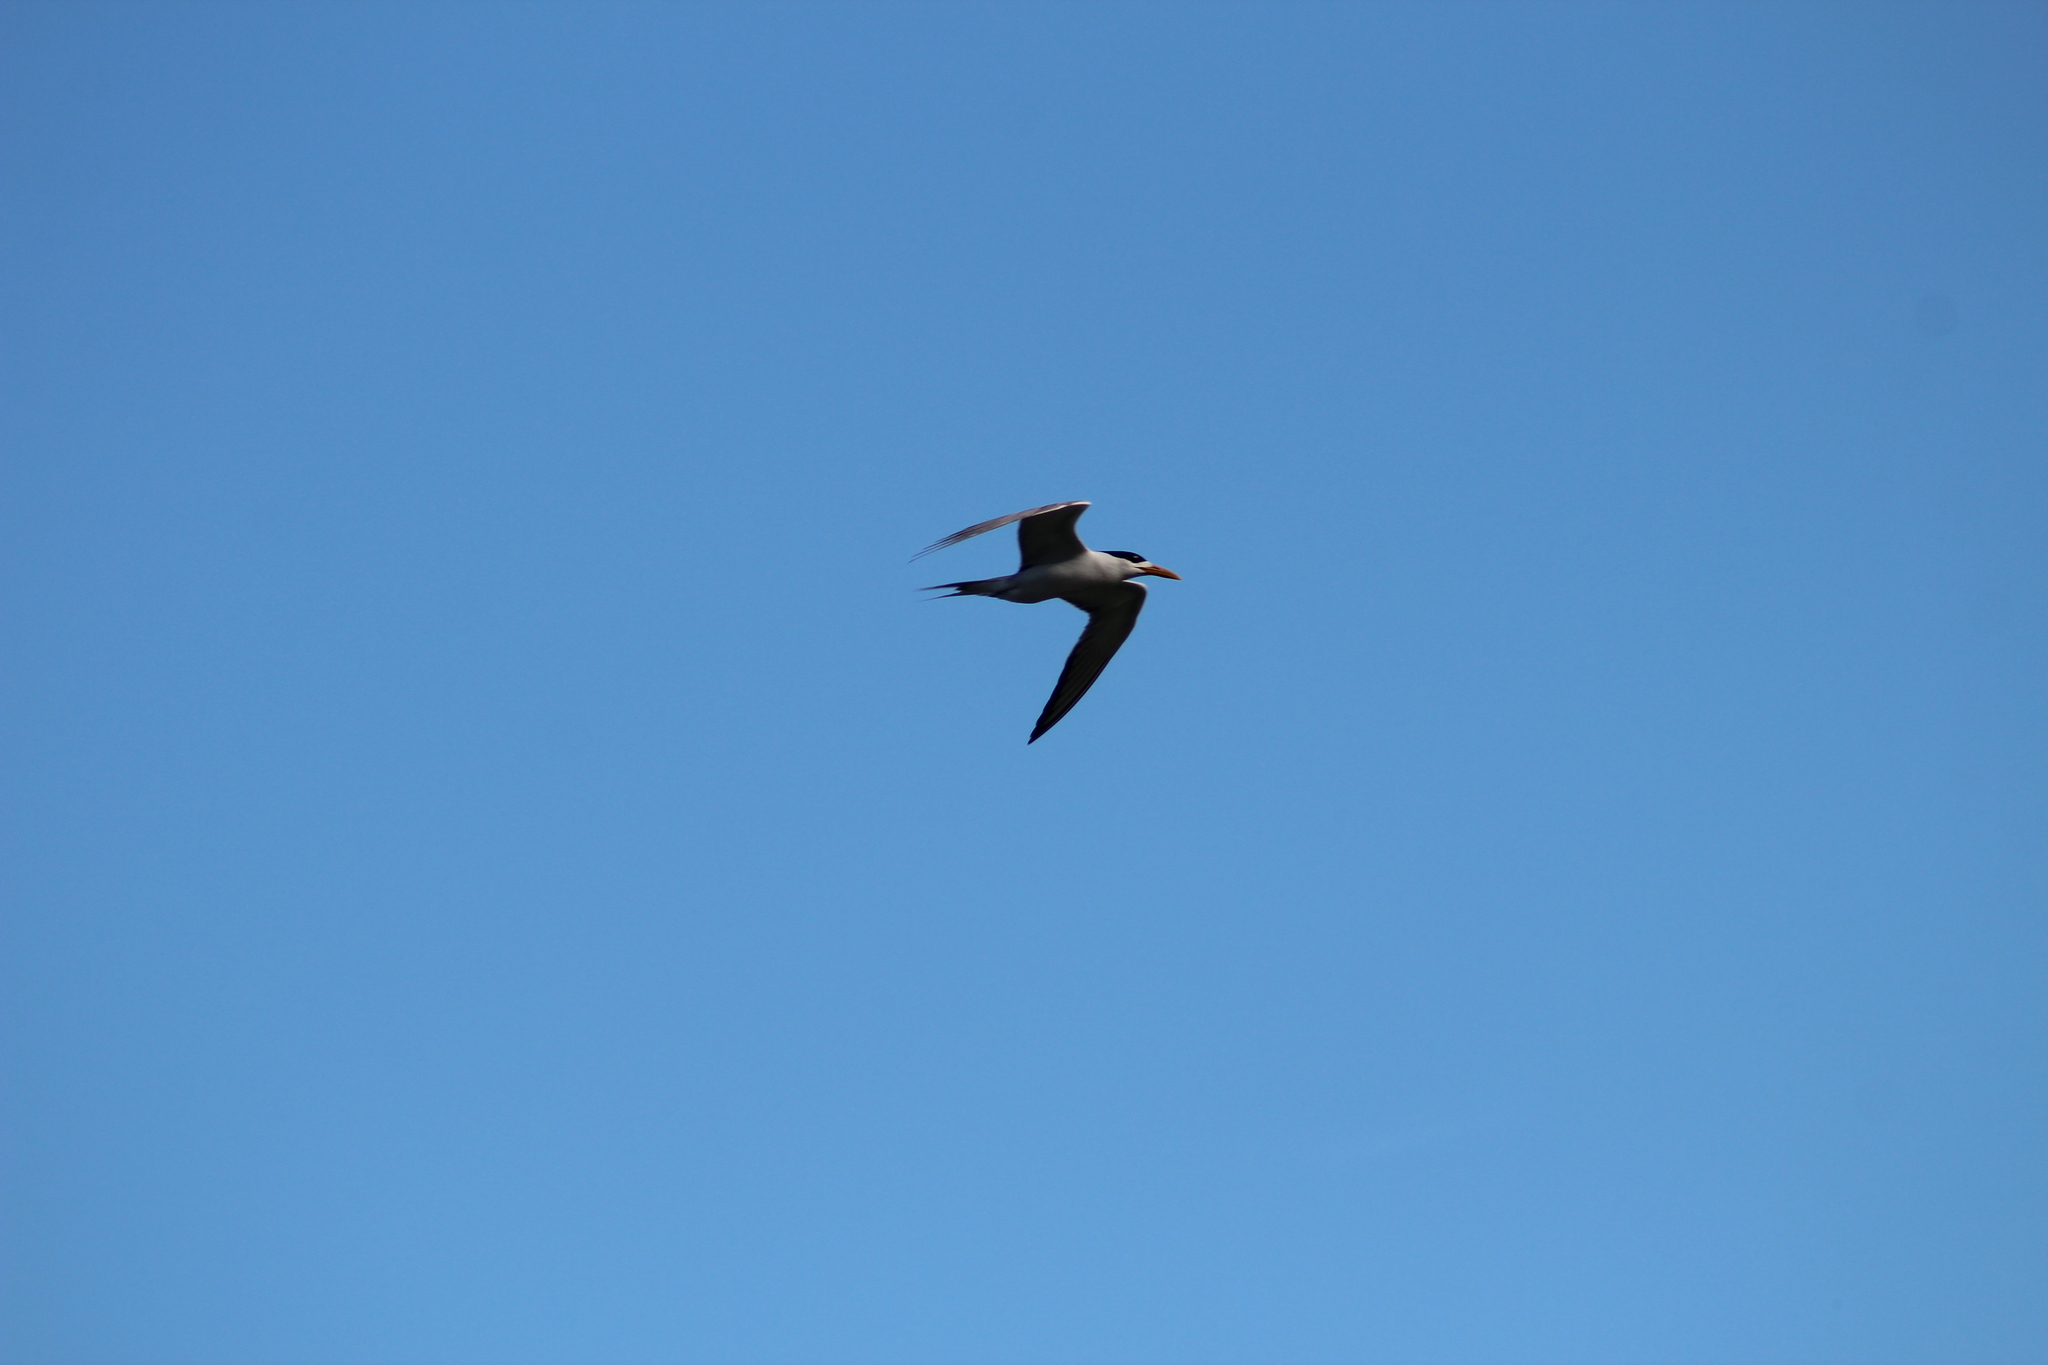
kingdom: Animalia
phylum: Chordata
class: Aves
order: Charadriiformes
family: Laridae
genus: Thalasseus
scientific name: Thalasseus bergii
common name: Greater crested tern
